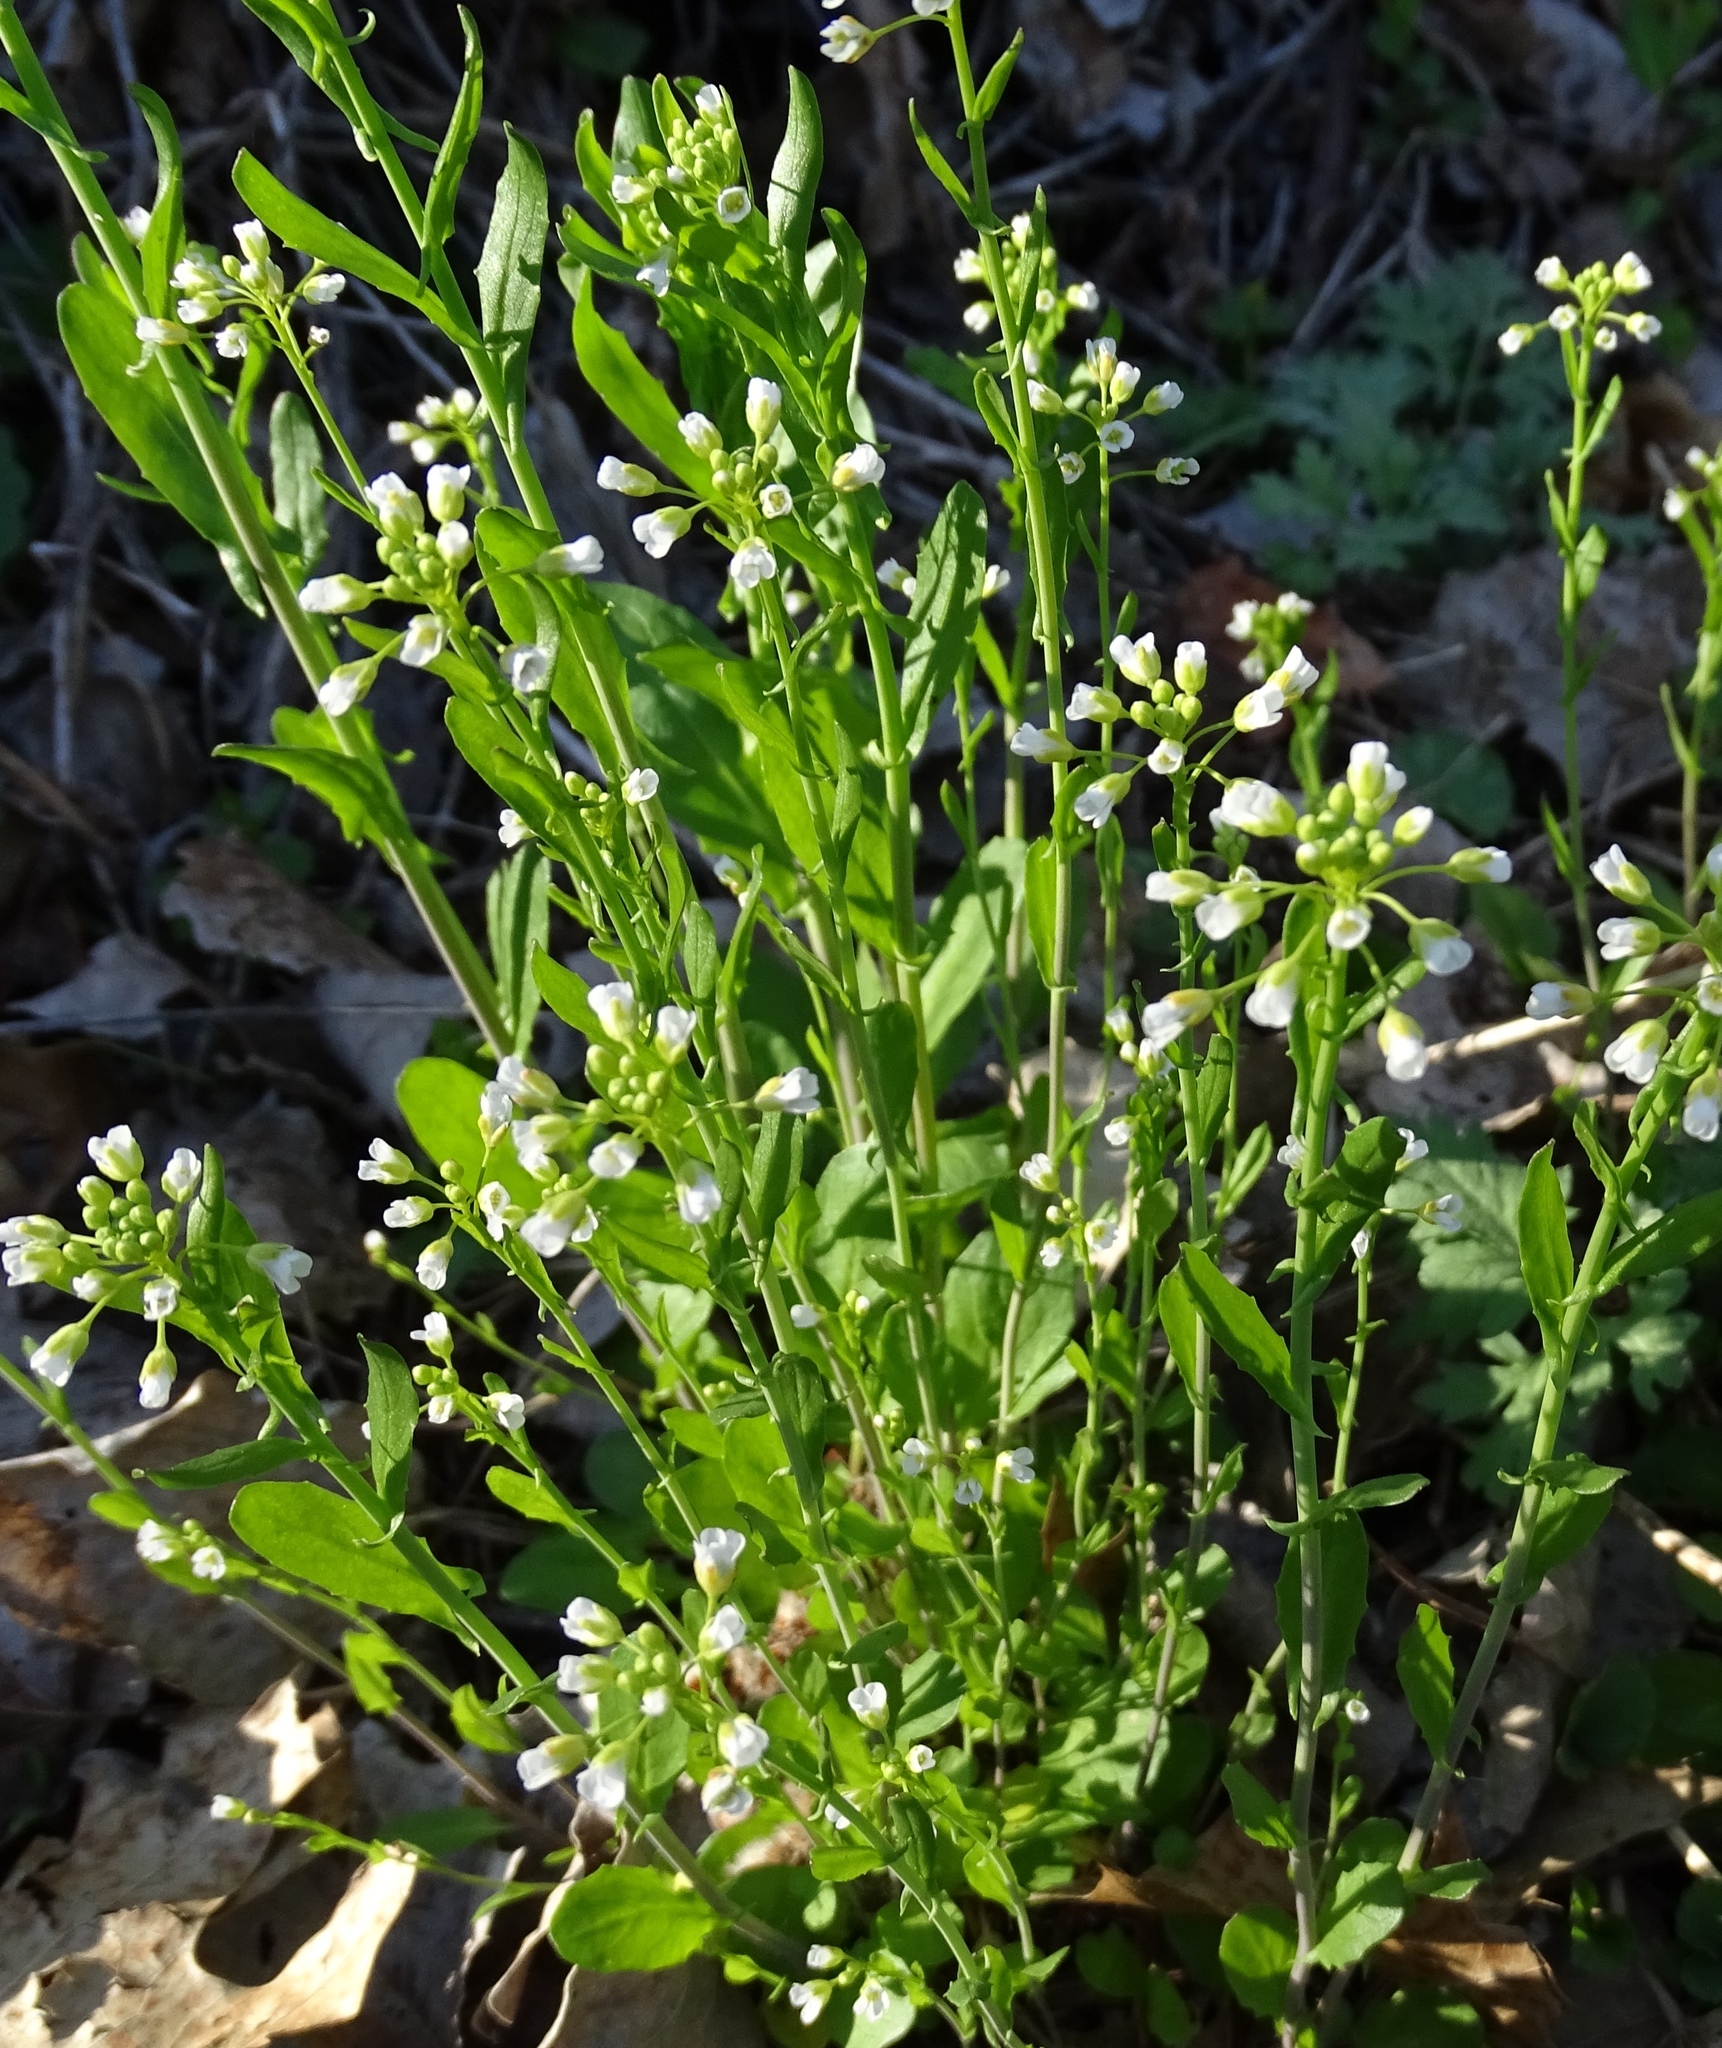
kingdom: Plantae
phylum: Tracheophyta
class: Magnoliopsida
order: Brassicales
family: Brassicaceae
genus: Mummenhoffia
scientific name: Mummenhoffia alliacea
